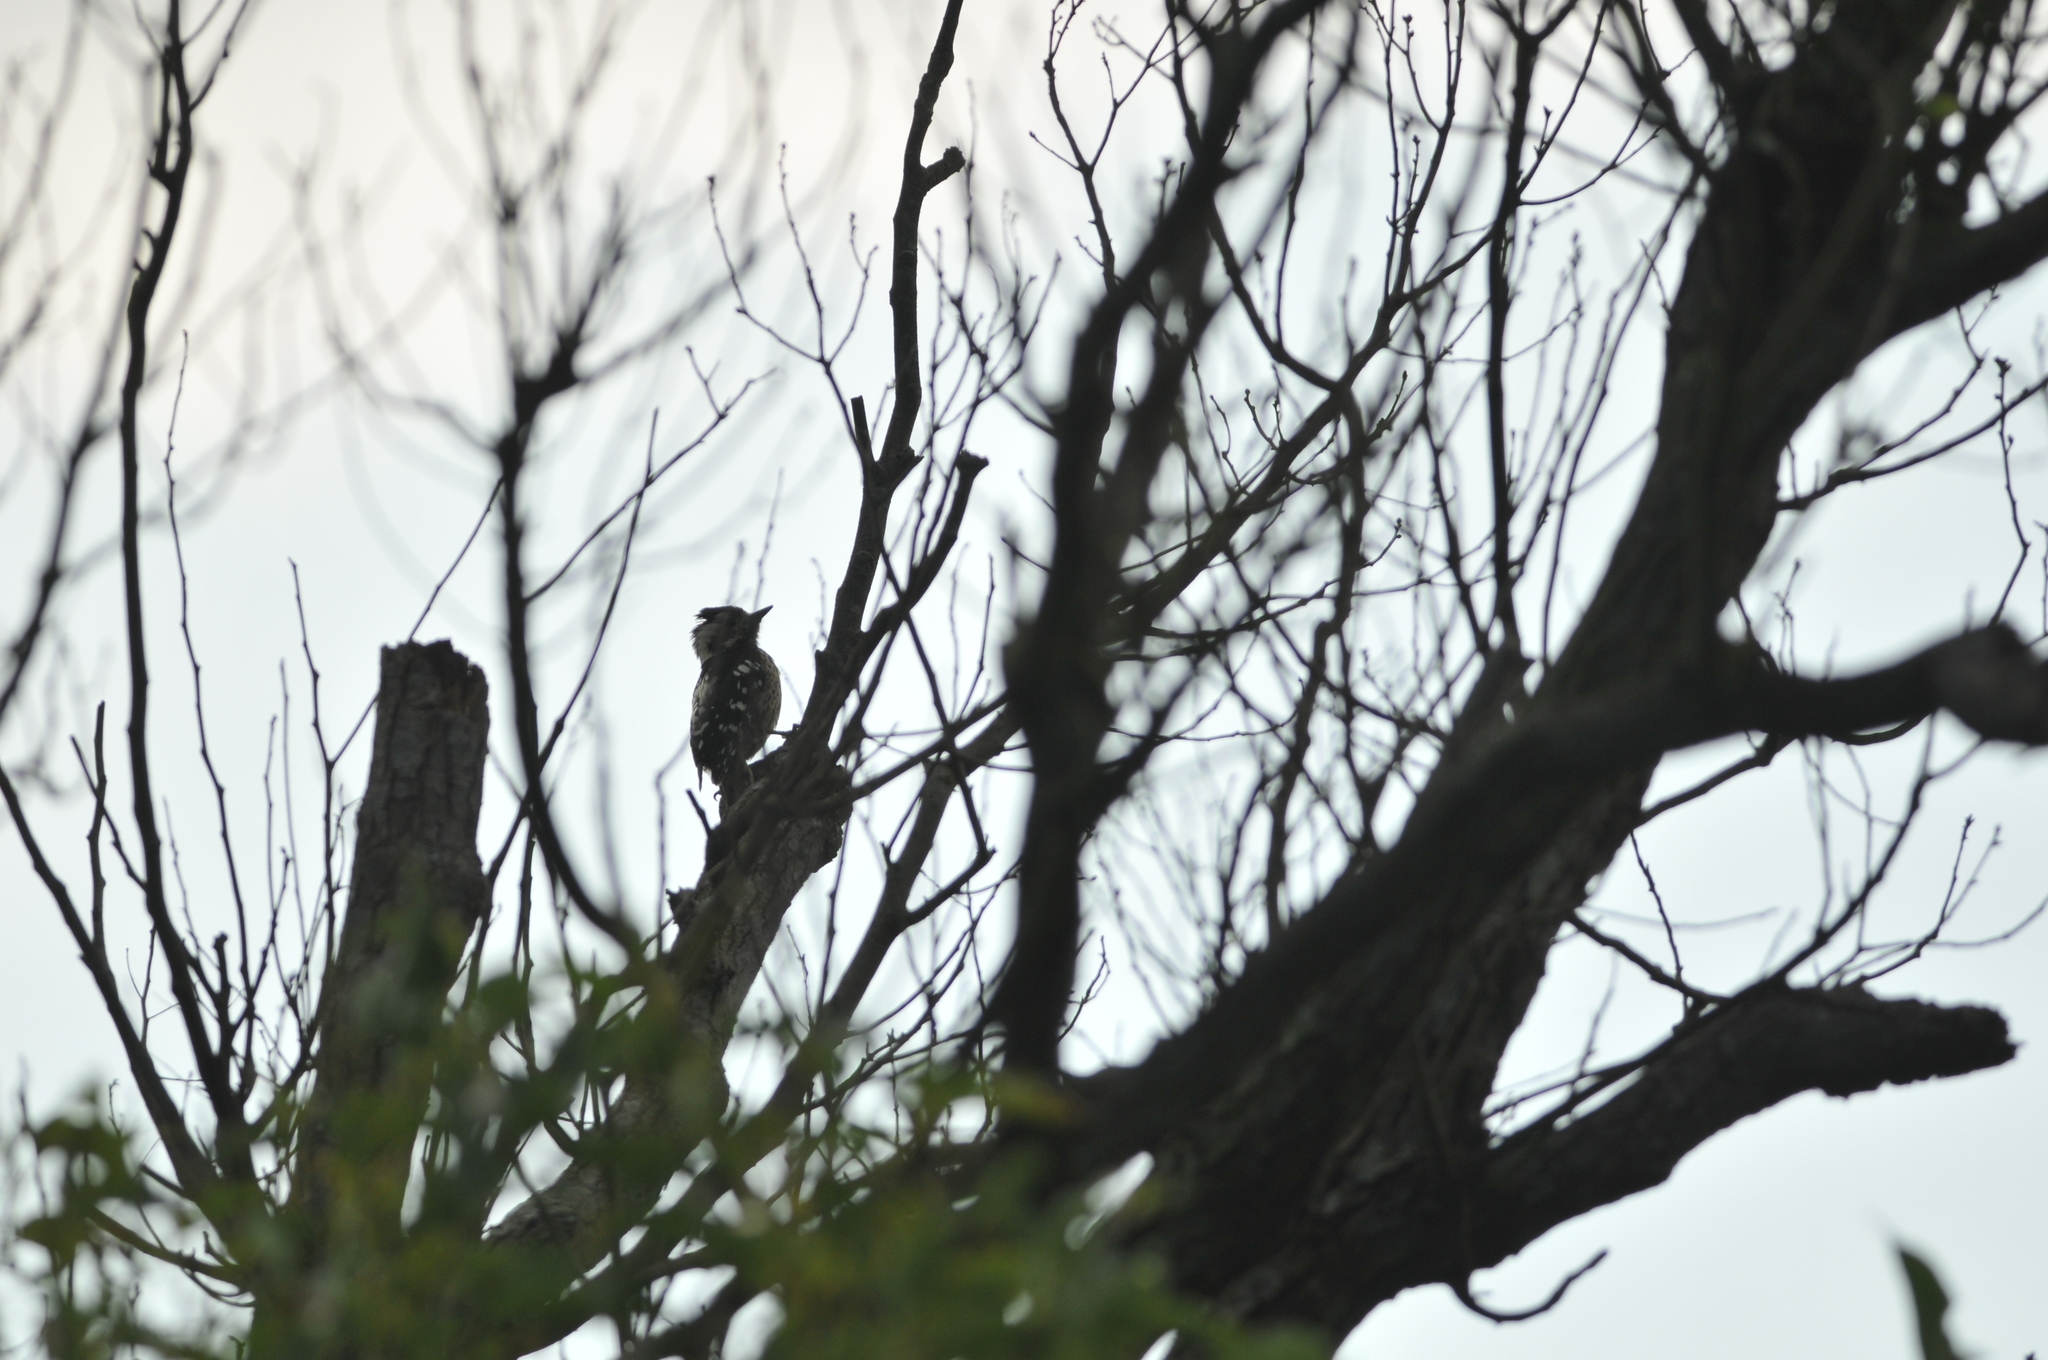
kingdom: Animalia
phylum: Chordata
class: Aves
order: Piciformes
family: Picidae
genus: Yungipicus
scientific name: Yungipicus canicapillus
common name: Grey-capped pygmy woodpecker
